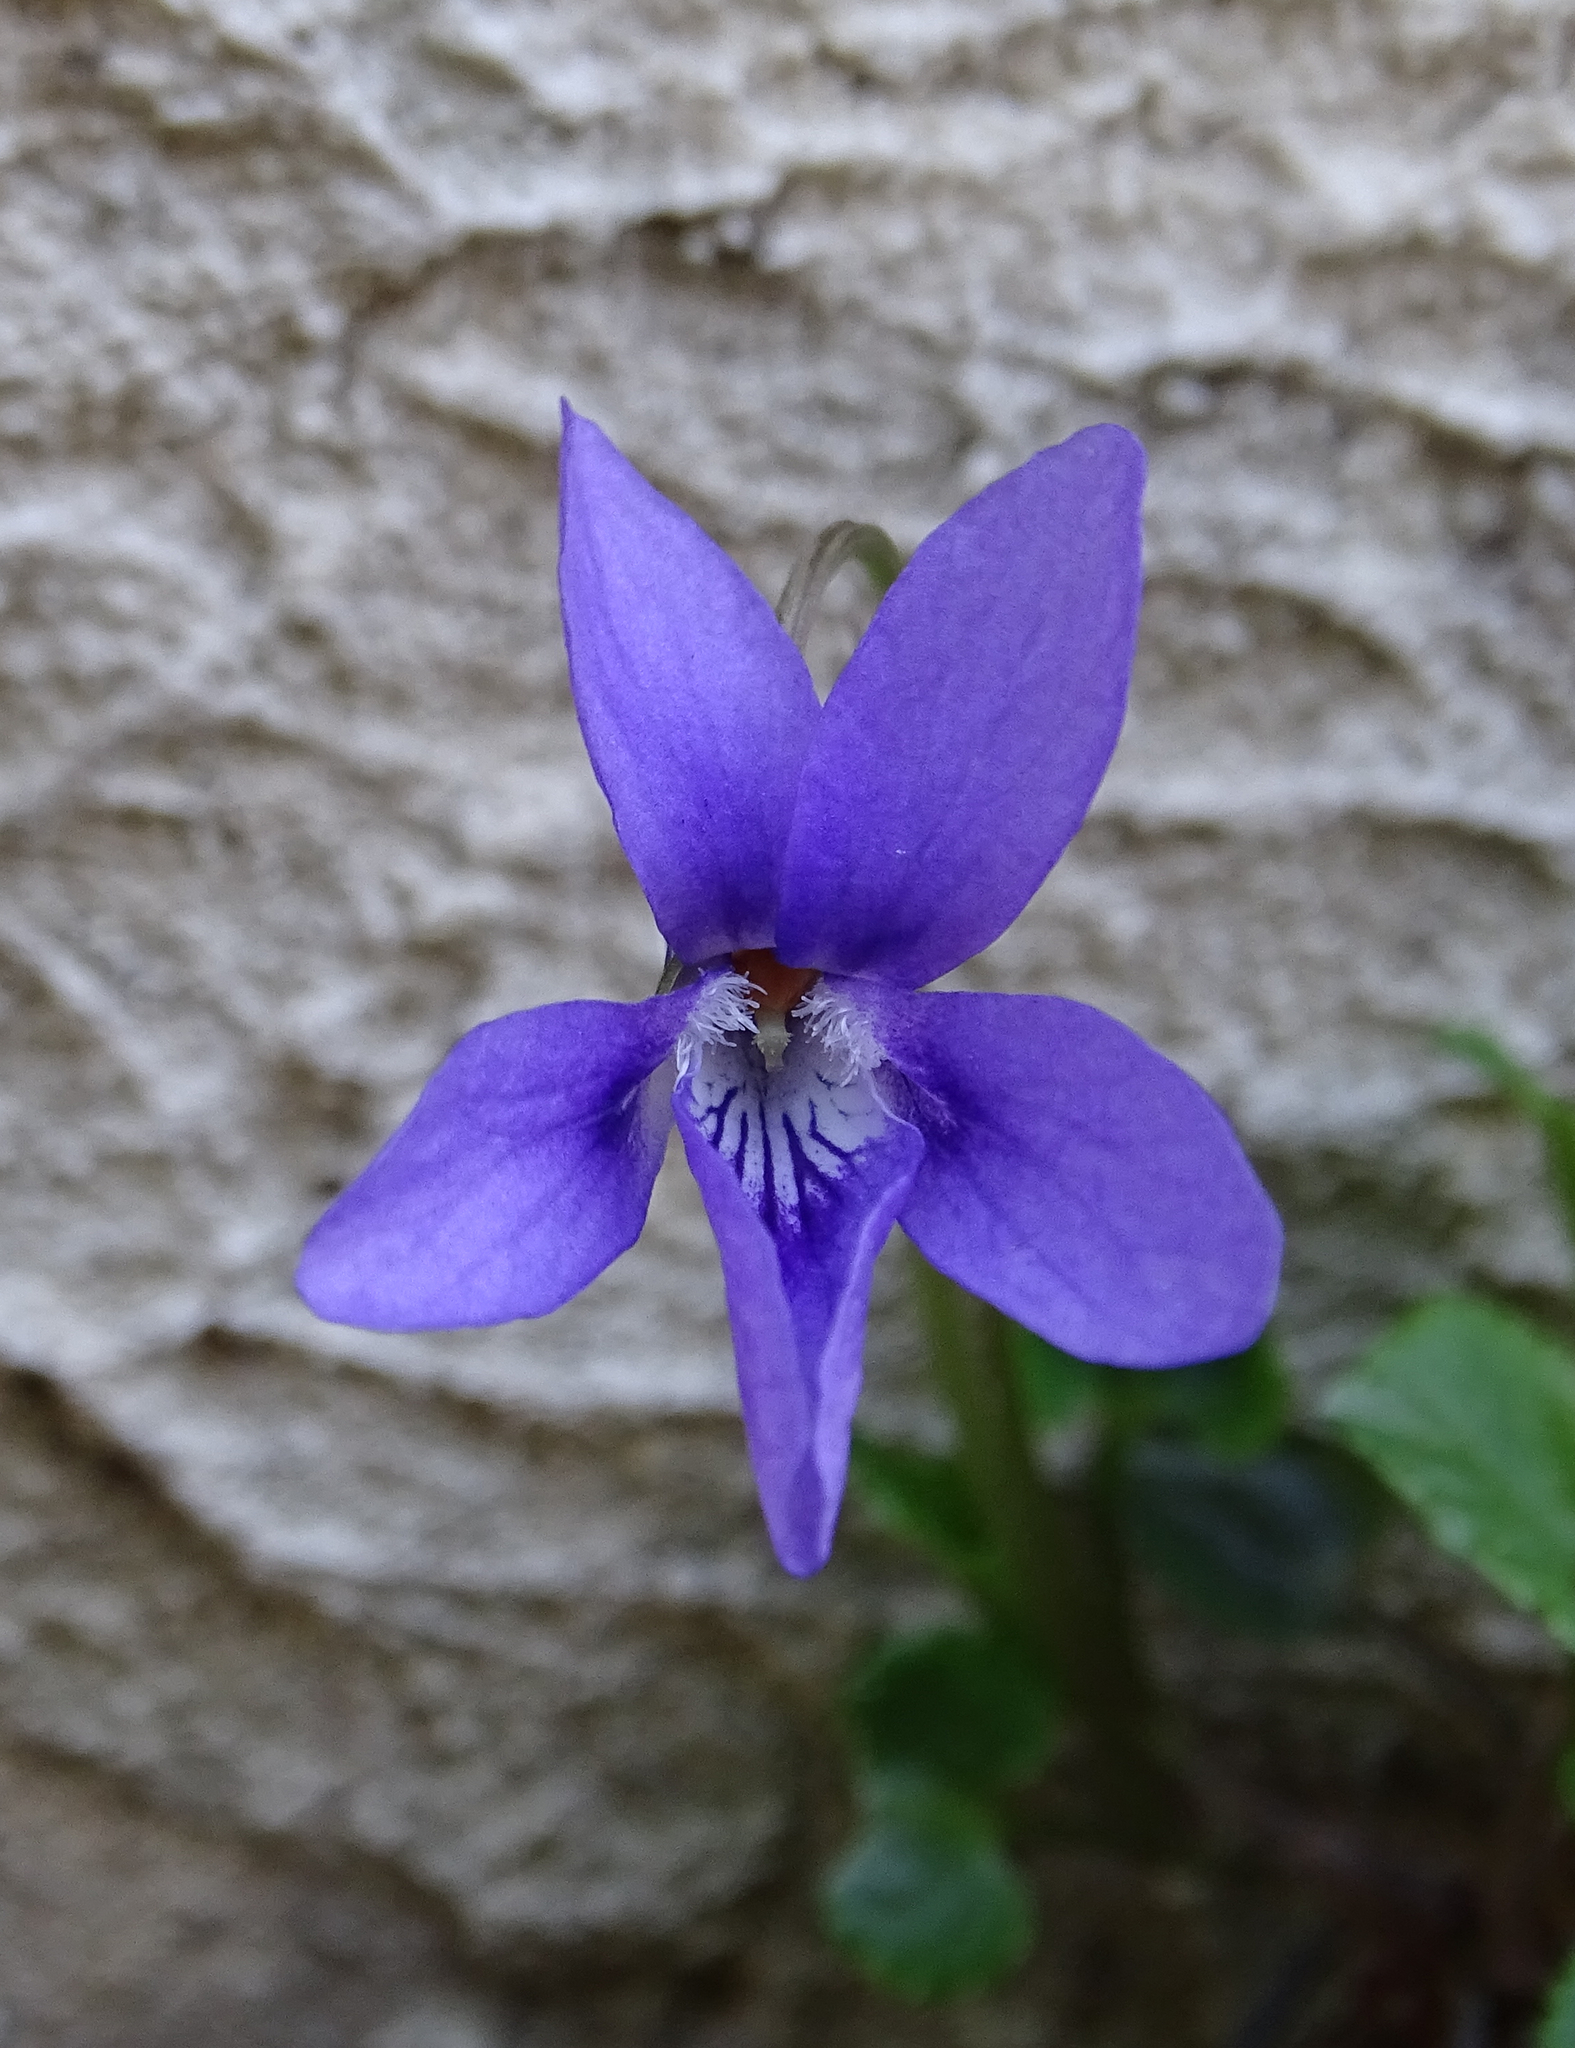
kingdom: Plantae
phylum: Tracheophyta
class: Magnoliopsida
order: Malpighiales
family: Violaceae
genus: Viola
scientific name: Viola reichenbachiana
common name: Early dog-violet
